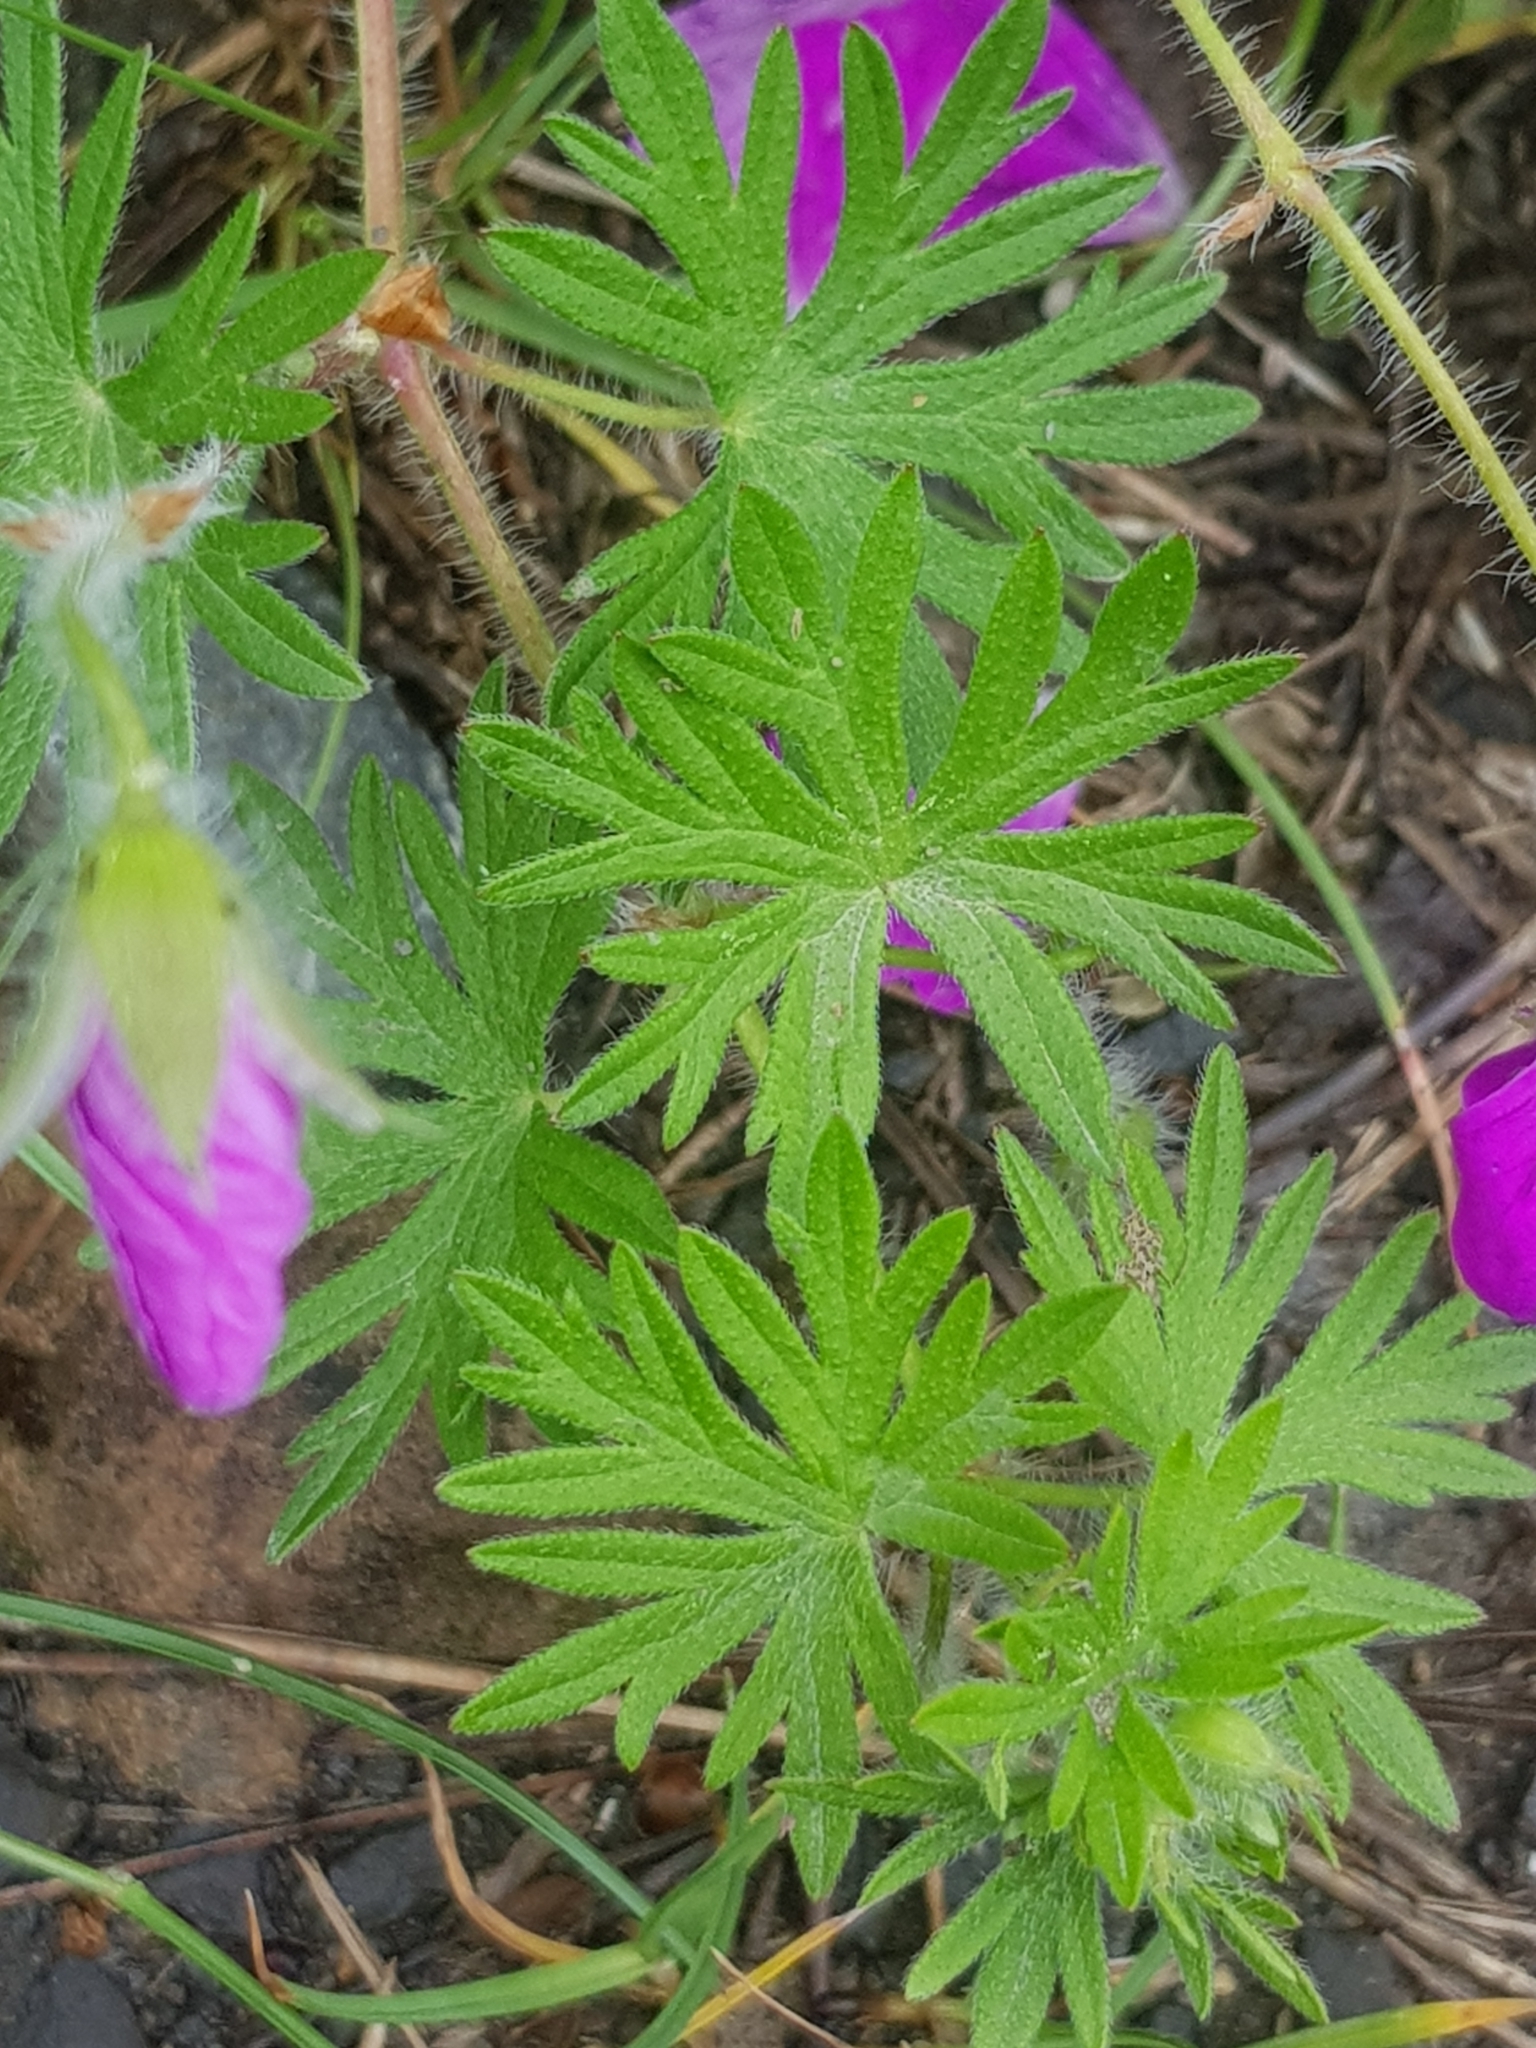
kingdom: Plantae
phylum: Tracheophyta
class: Magnoliopsida
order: Geraniales
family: Geraniaceae
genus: Geranium
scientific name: Geranium sanguineum
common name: Bloody crane's-bill
